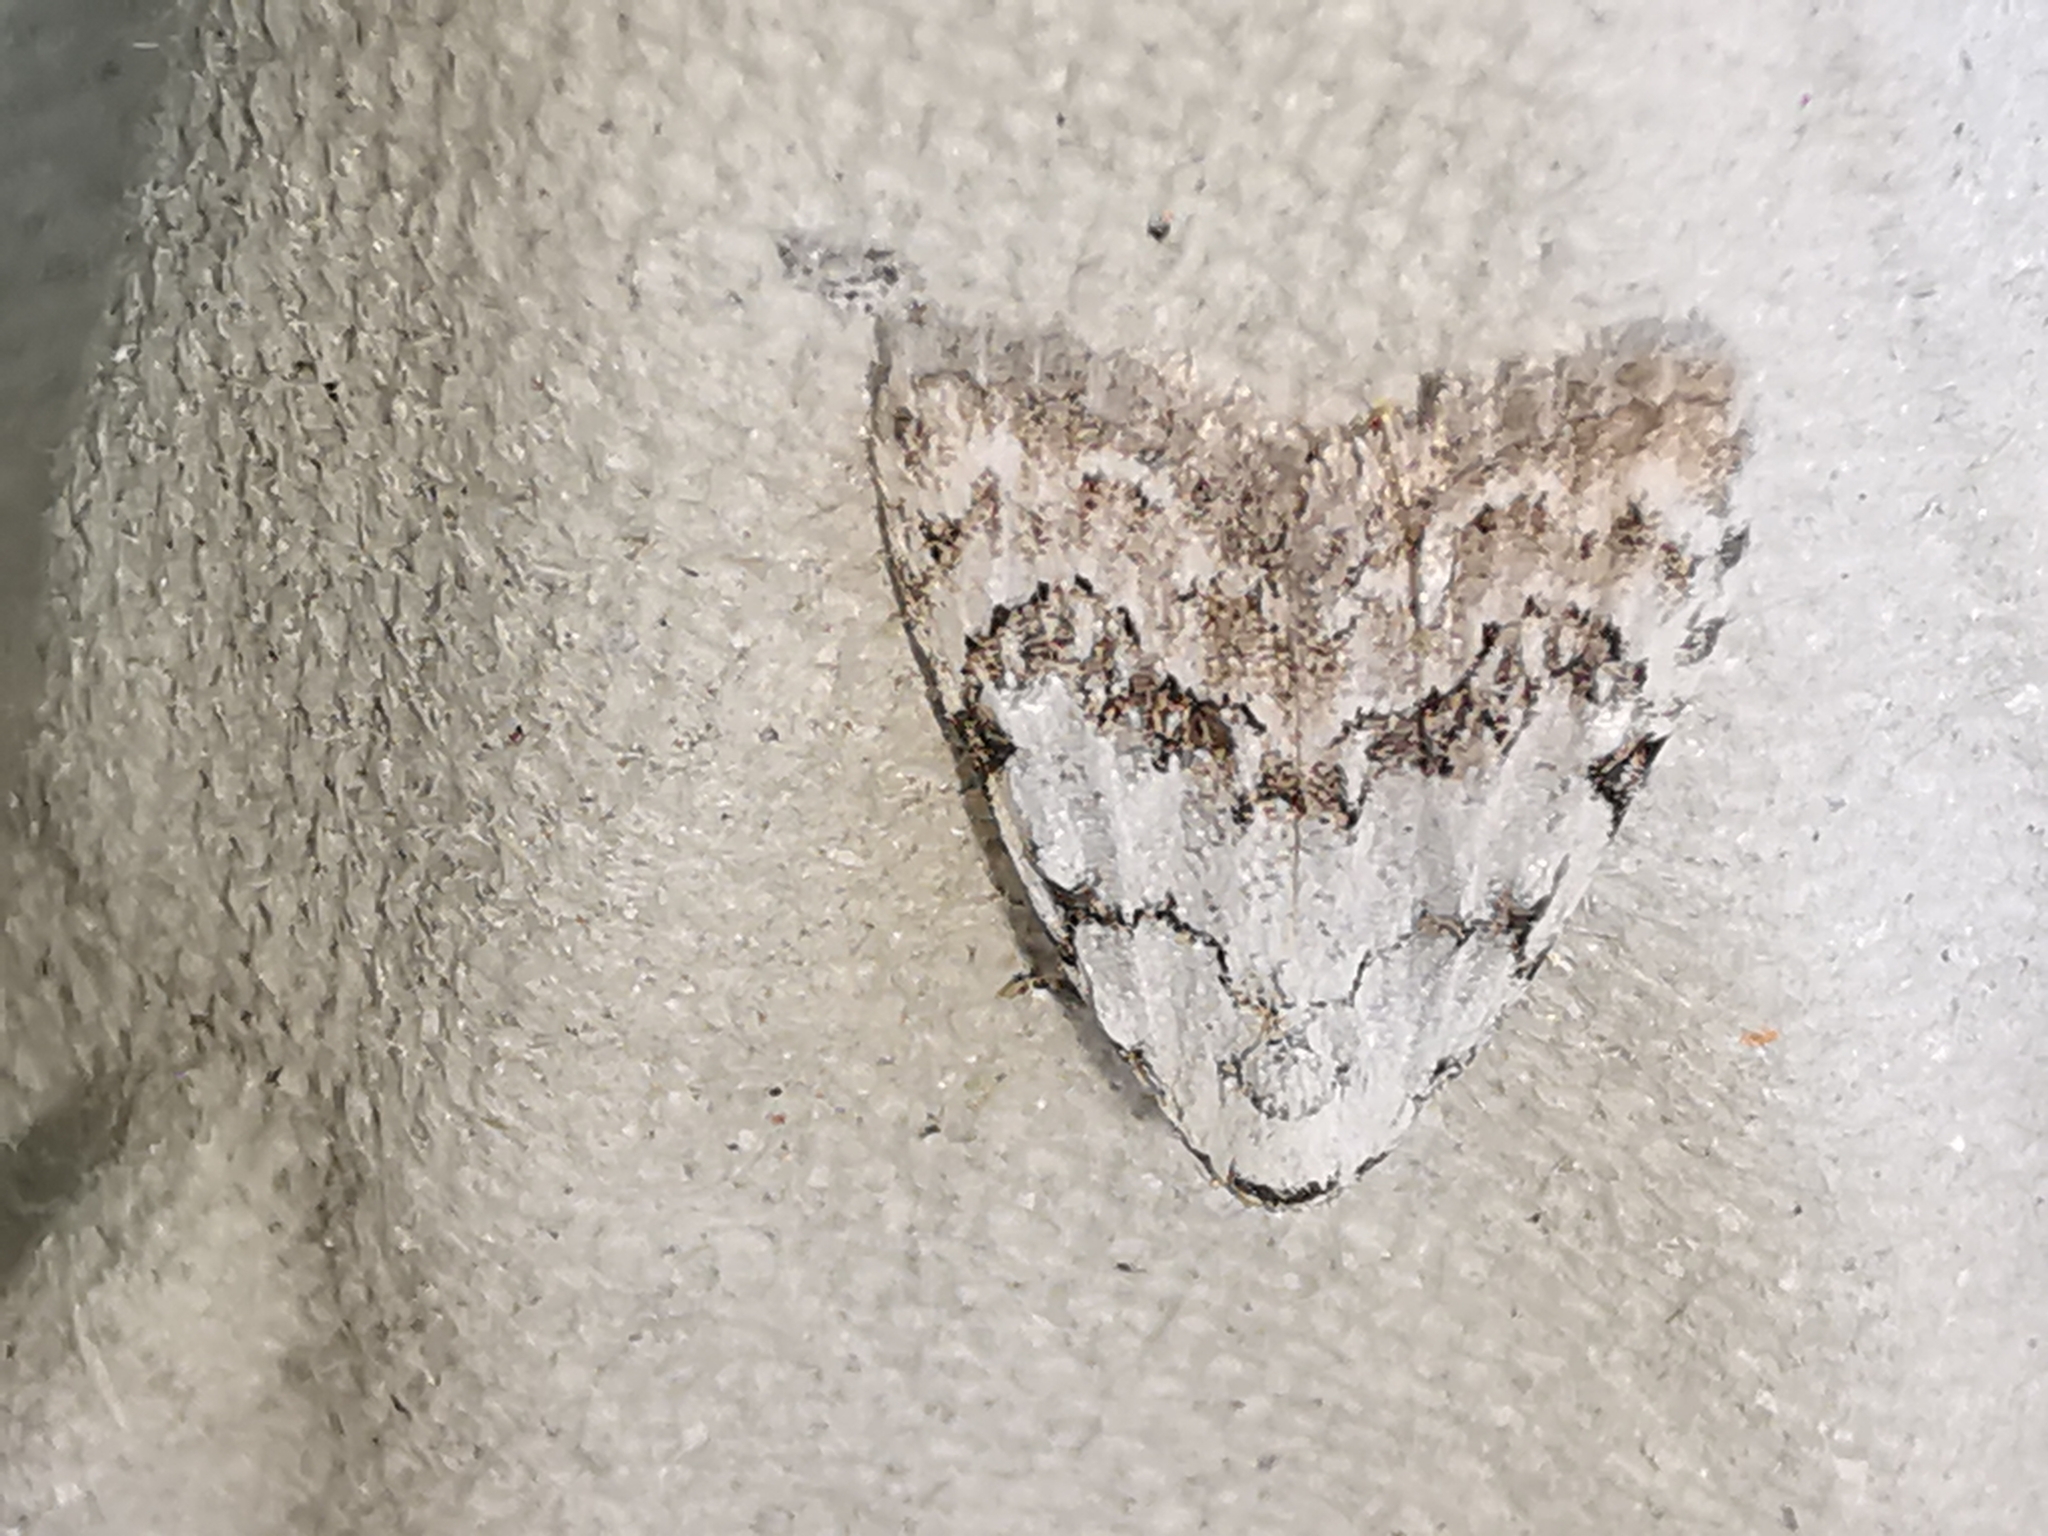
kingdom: Animalia
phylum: Arthropoda
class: Insecta
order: Lepidoptera
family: Nolidae
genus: Nola
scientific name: Nola confusalis
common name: Least black arches
